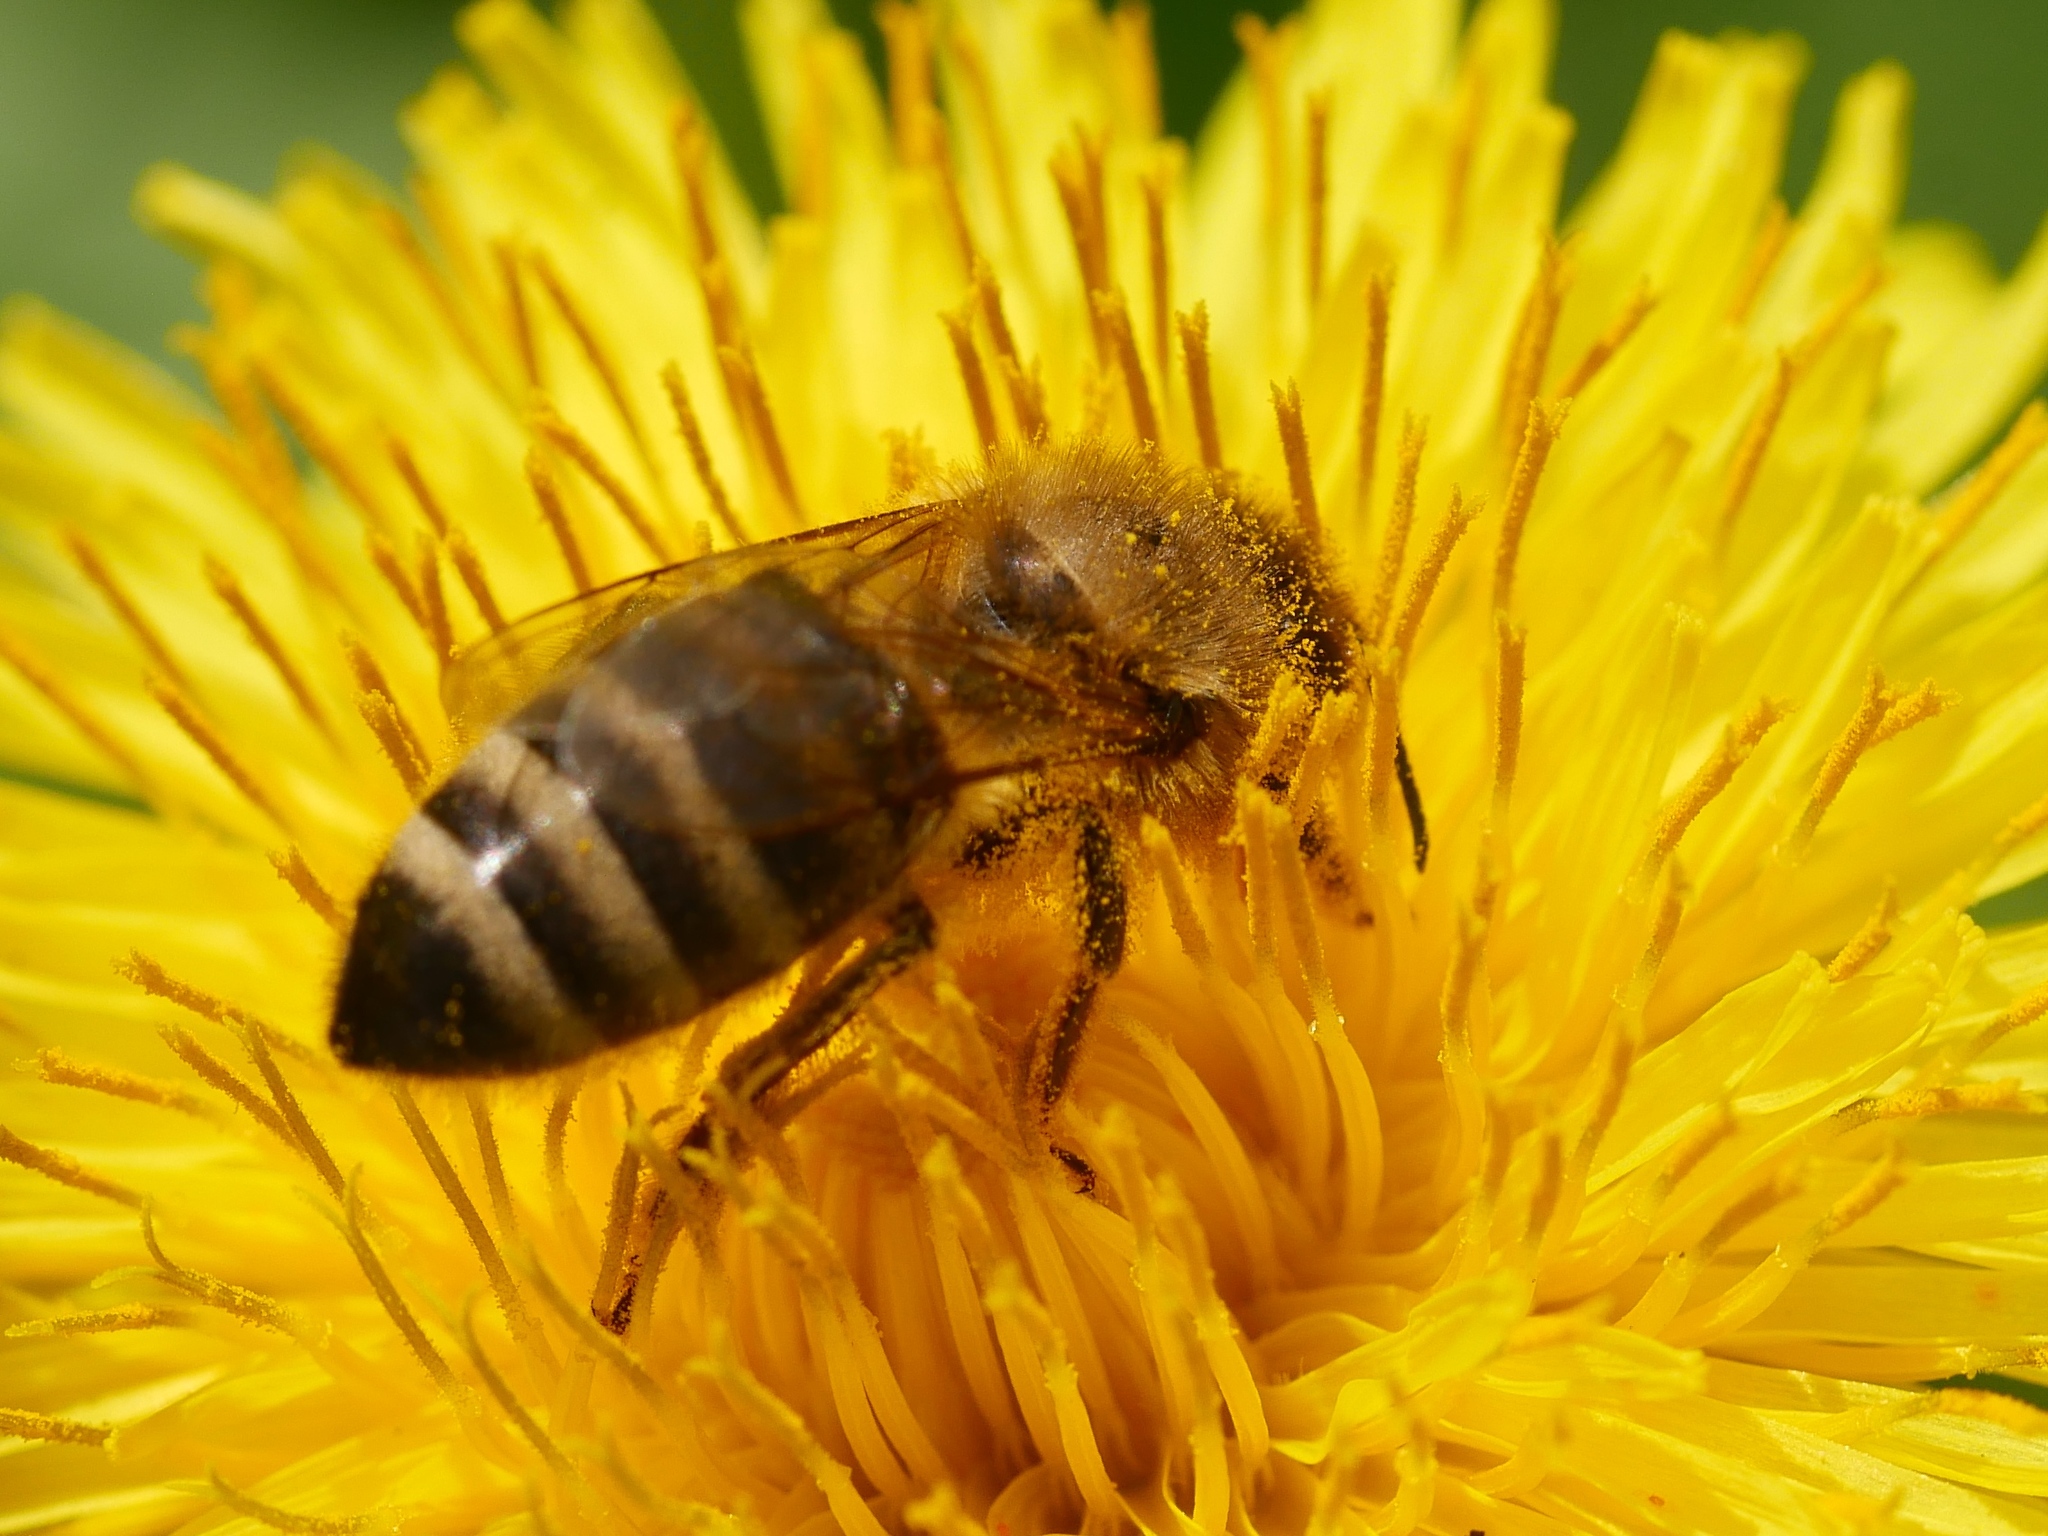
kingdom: Animalia
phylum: Arthropoda
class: Insecta
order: Hymenoptera
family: Apidae
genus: Apis
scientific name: Apis mellifera
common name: Honey bee
